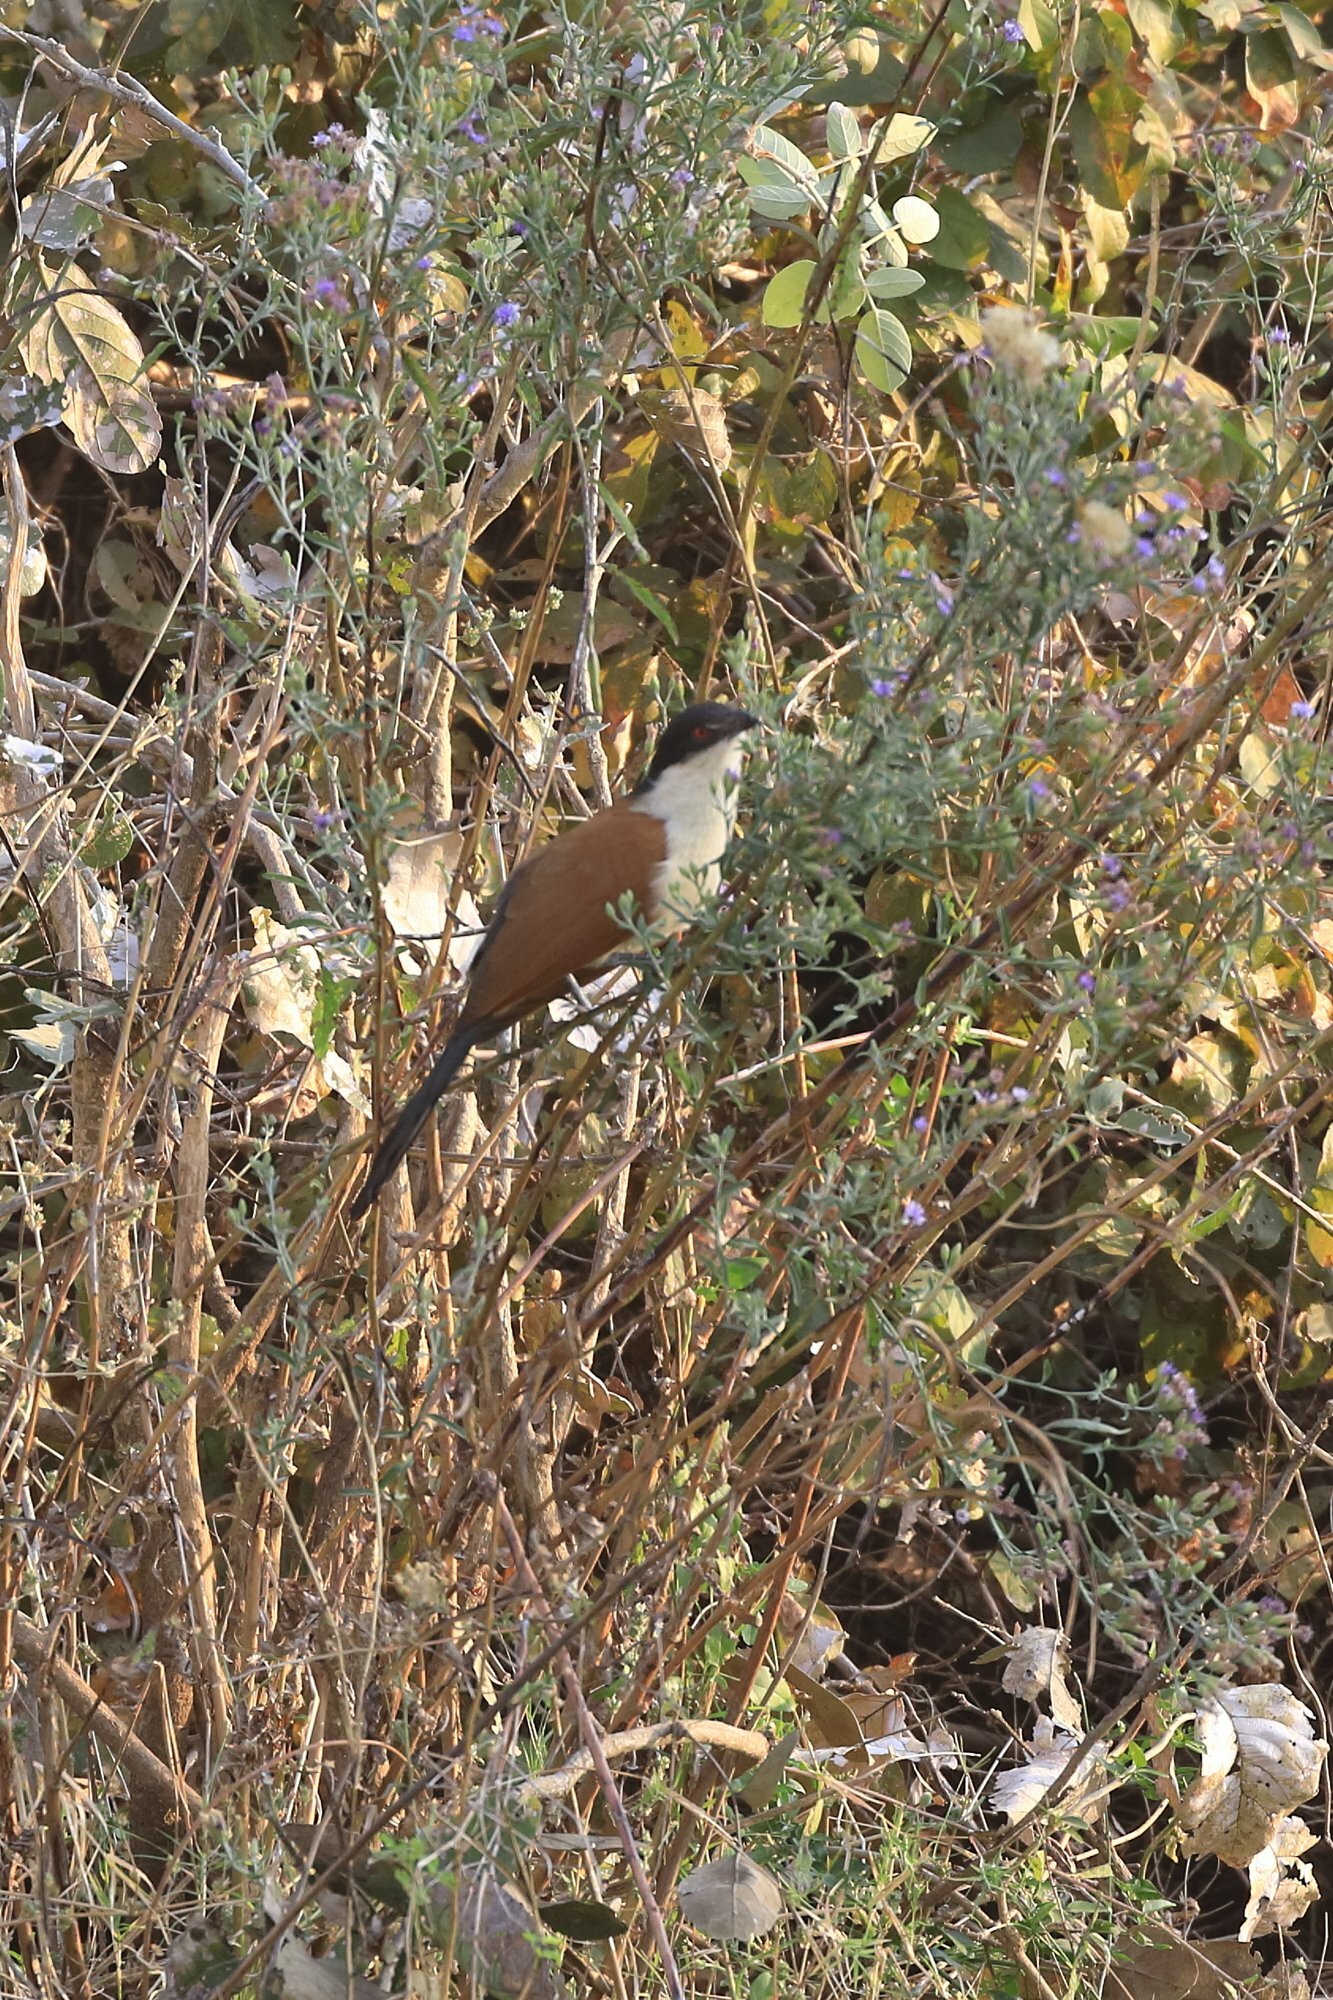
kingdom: Animalia
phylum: Chordata
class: Aves
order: Cuculiformes
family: Cuculidae
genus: Centropus
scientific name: Centropus senegalensis
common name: Senegal coucal
